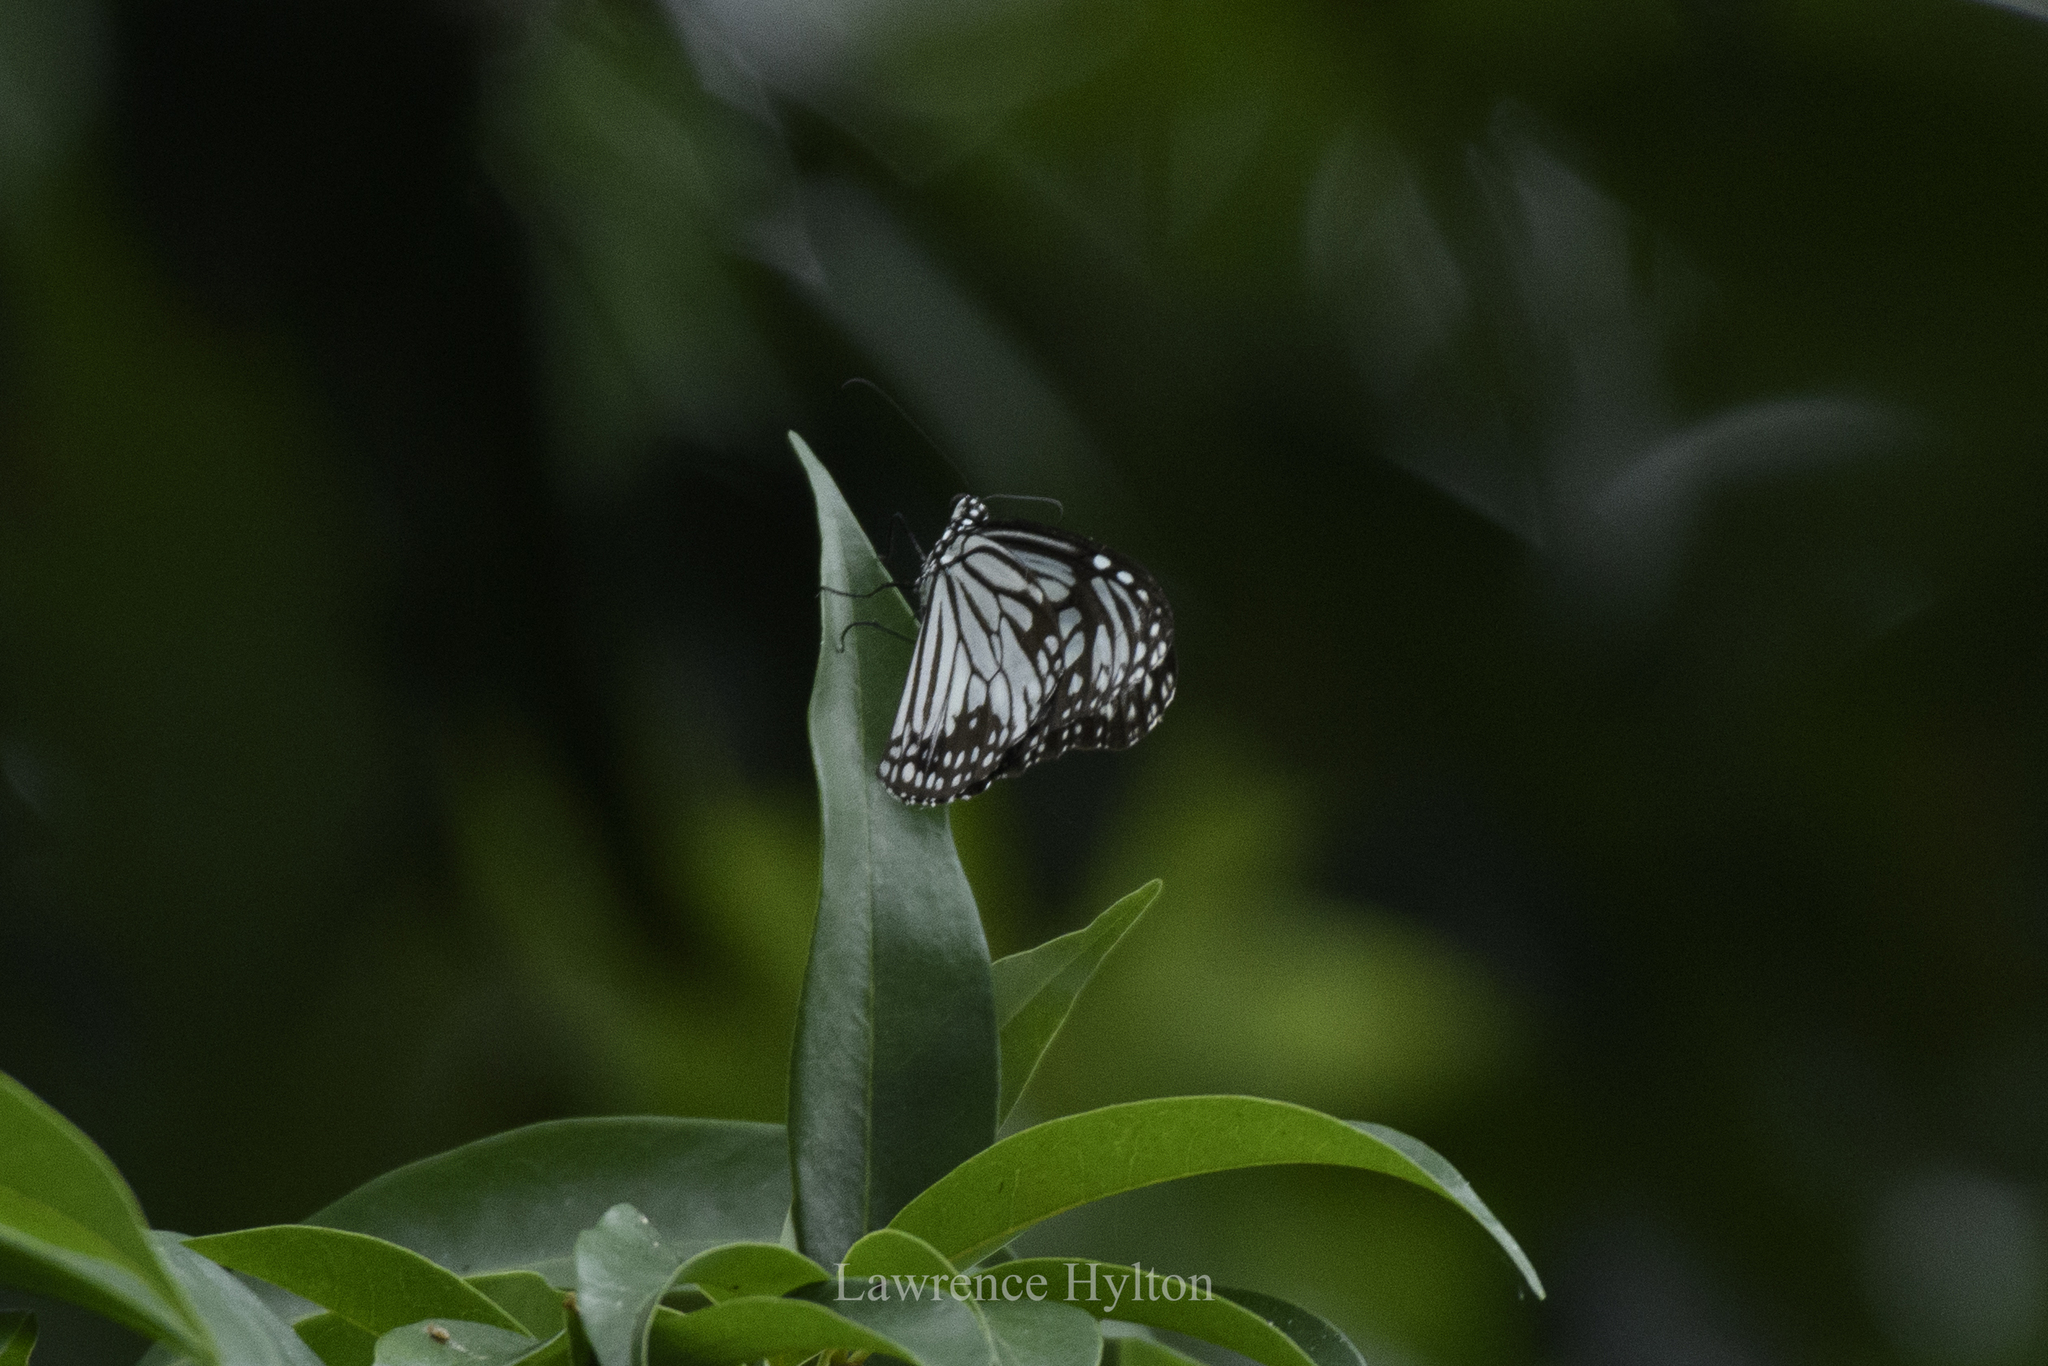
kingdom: Animalia
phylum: Arthropoda
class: Insecta
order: Lepidoptera
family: Nymphalidae
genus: Parantica
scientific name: Parantica aglea
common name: Glassy tiger
